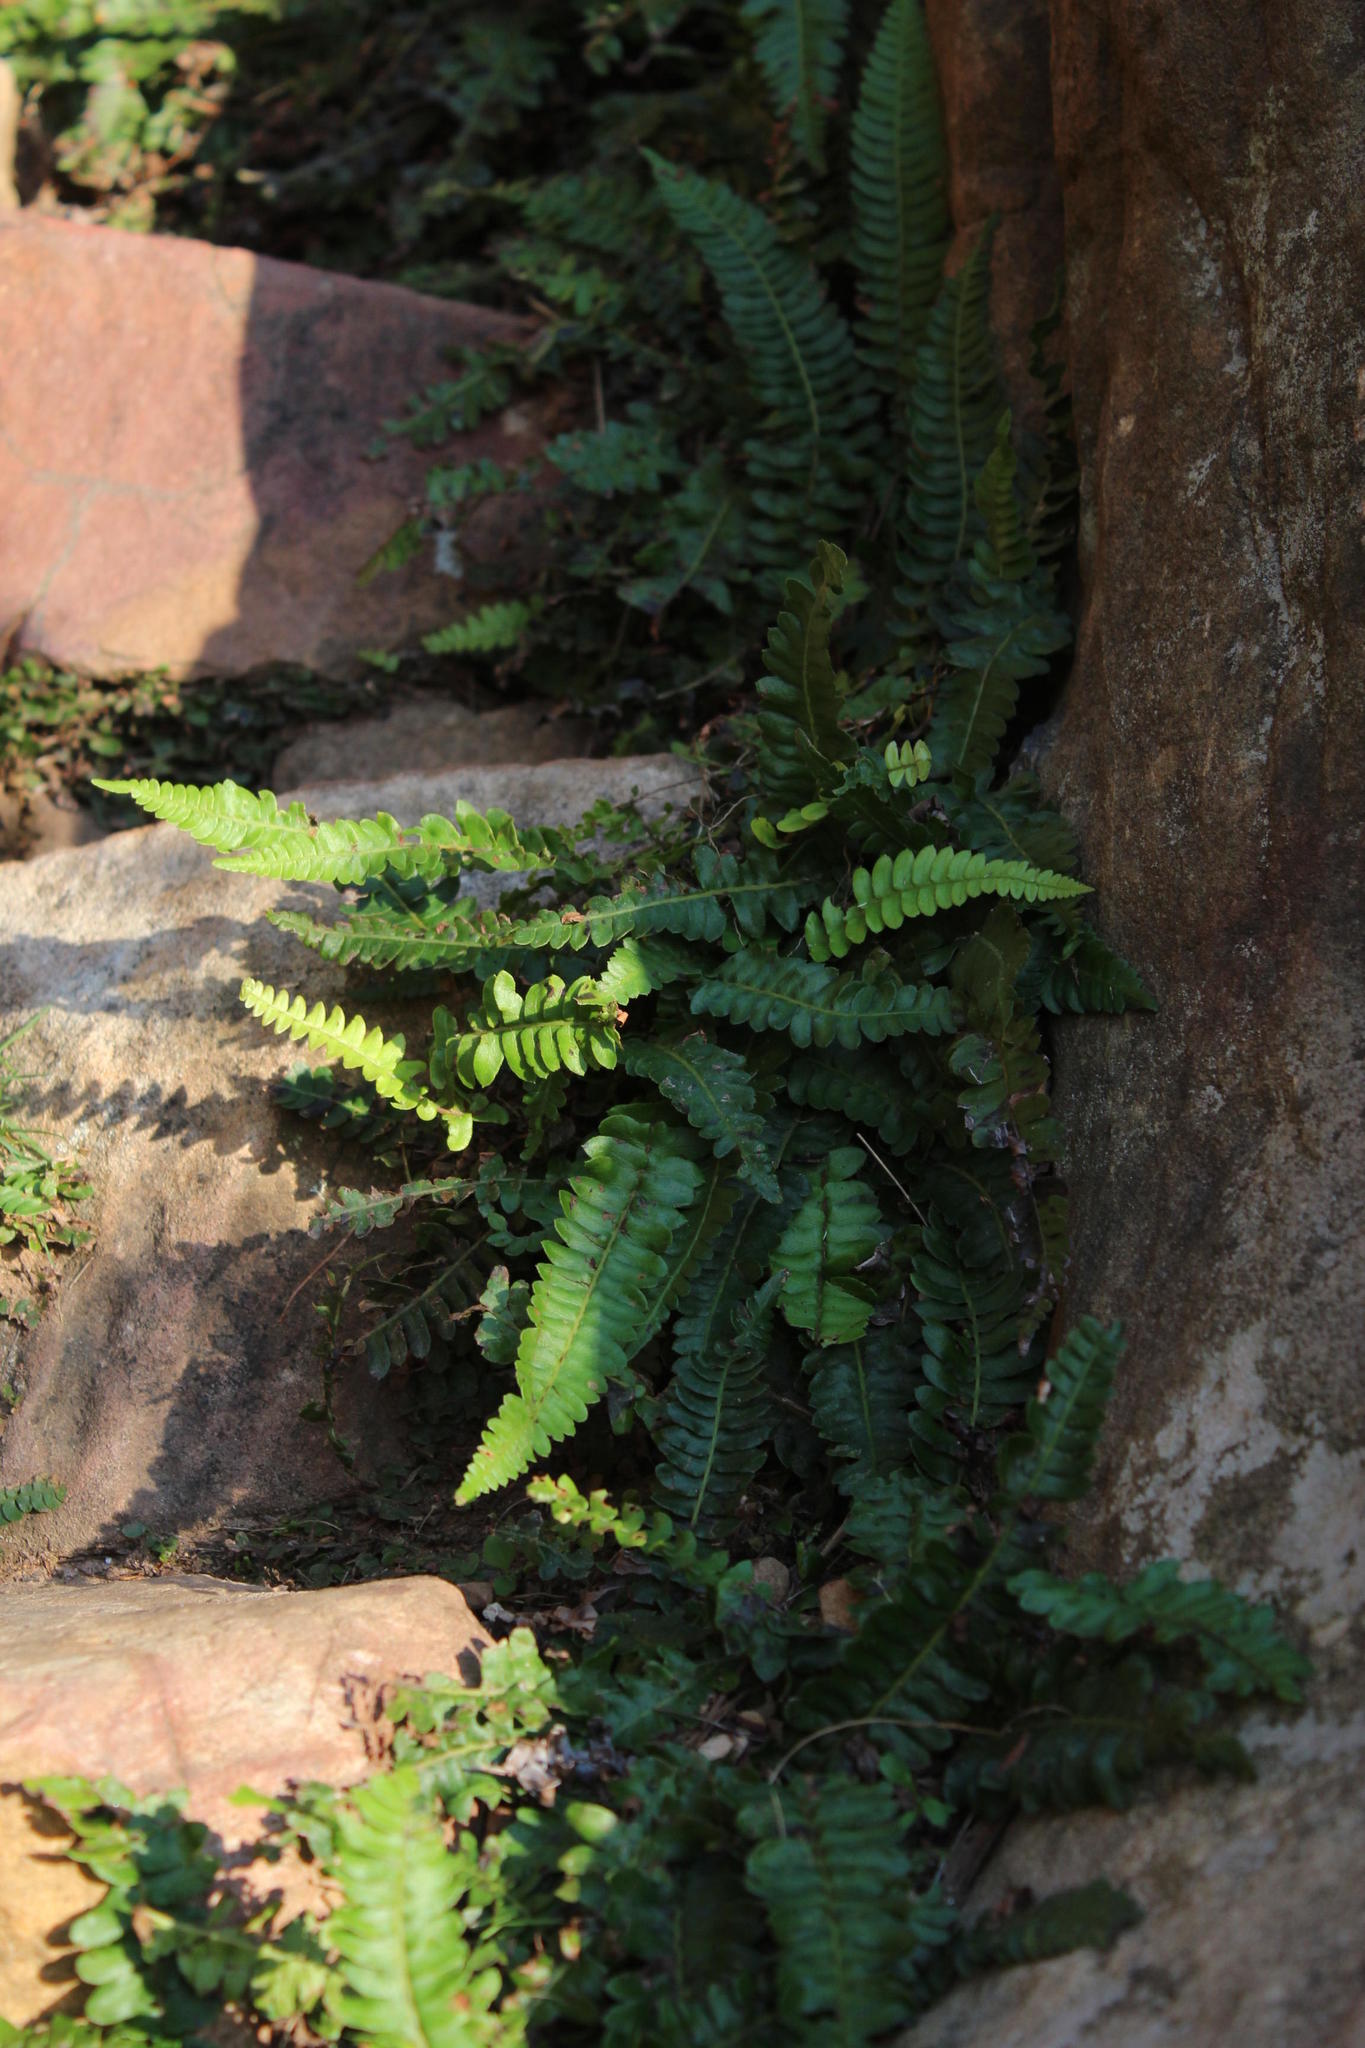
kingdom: Plantae
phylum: Tracheophyta
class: Polypodiopsida
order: Polypodiales
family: Blechnaceae
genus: Blechnum
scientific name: Blechnum australe
